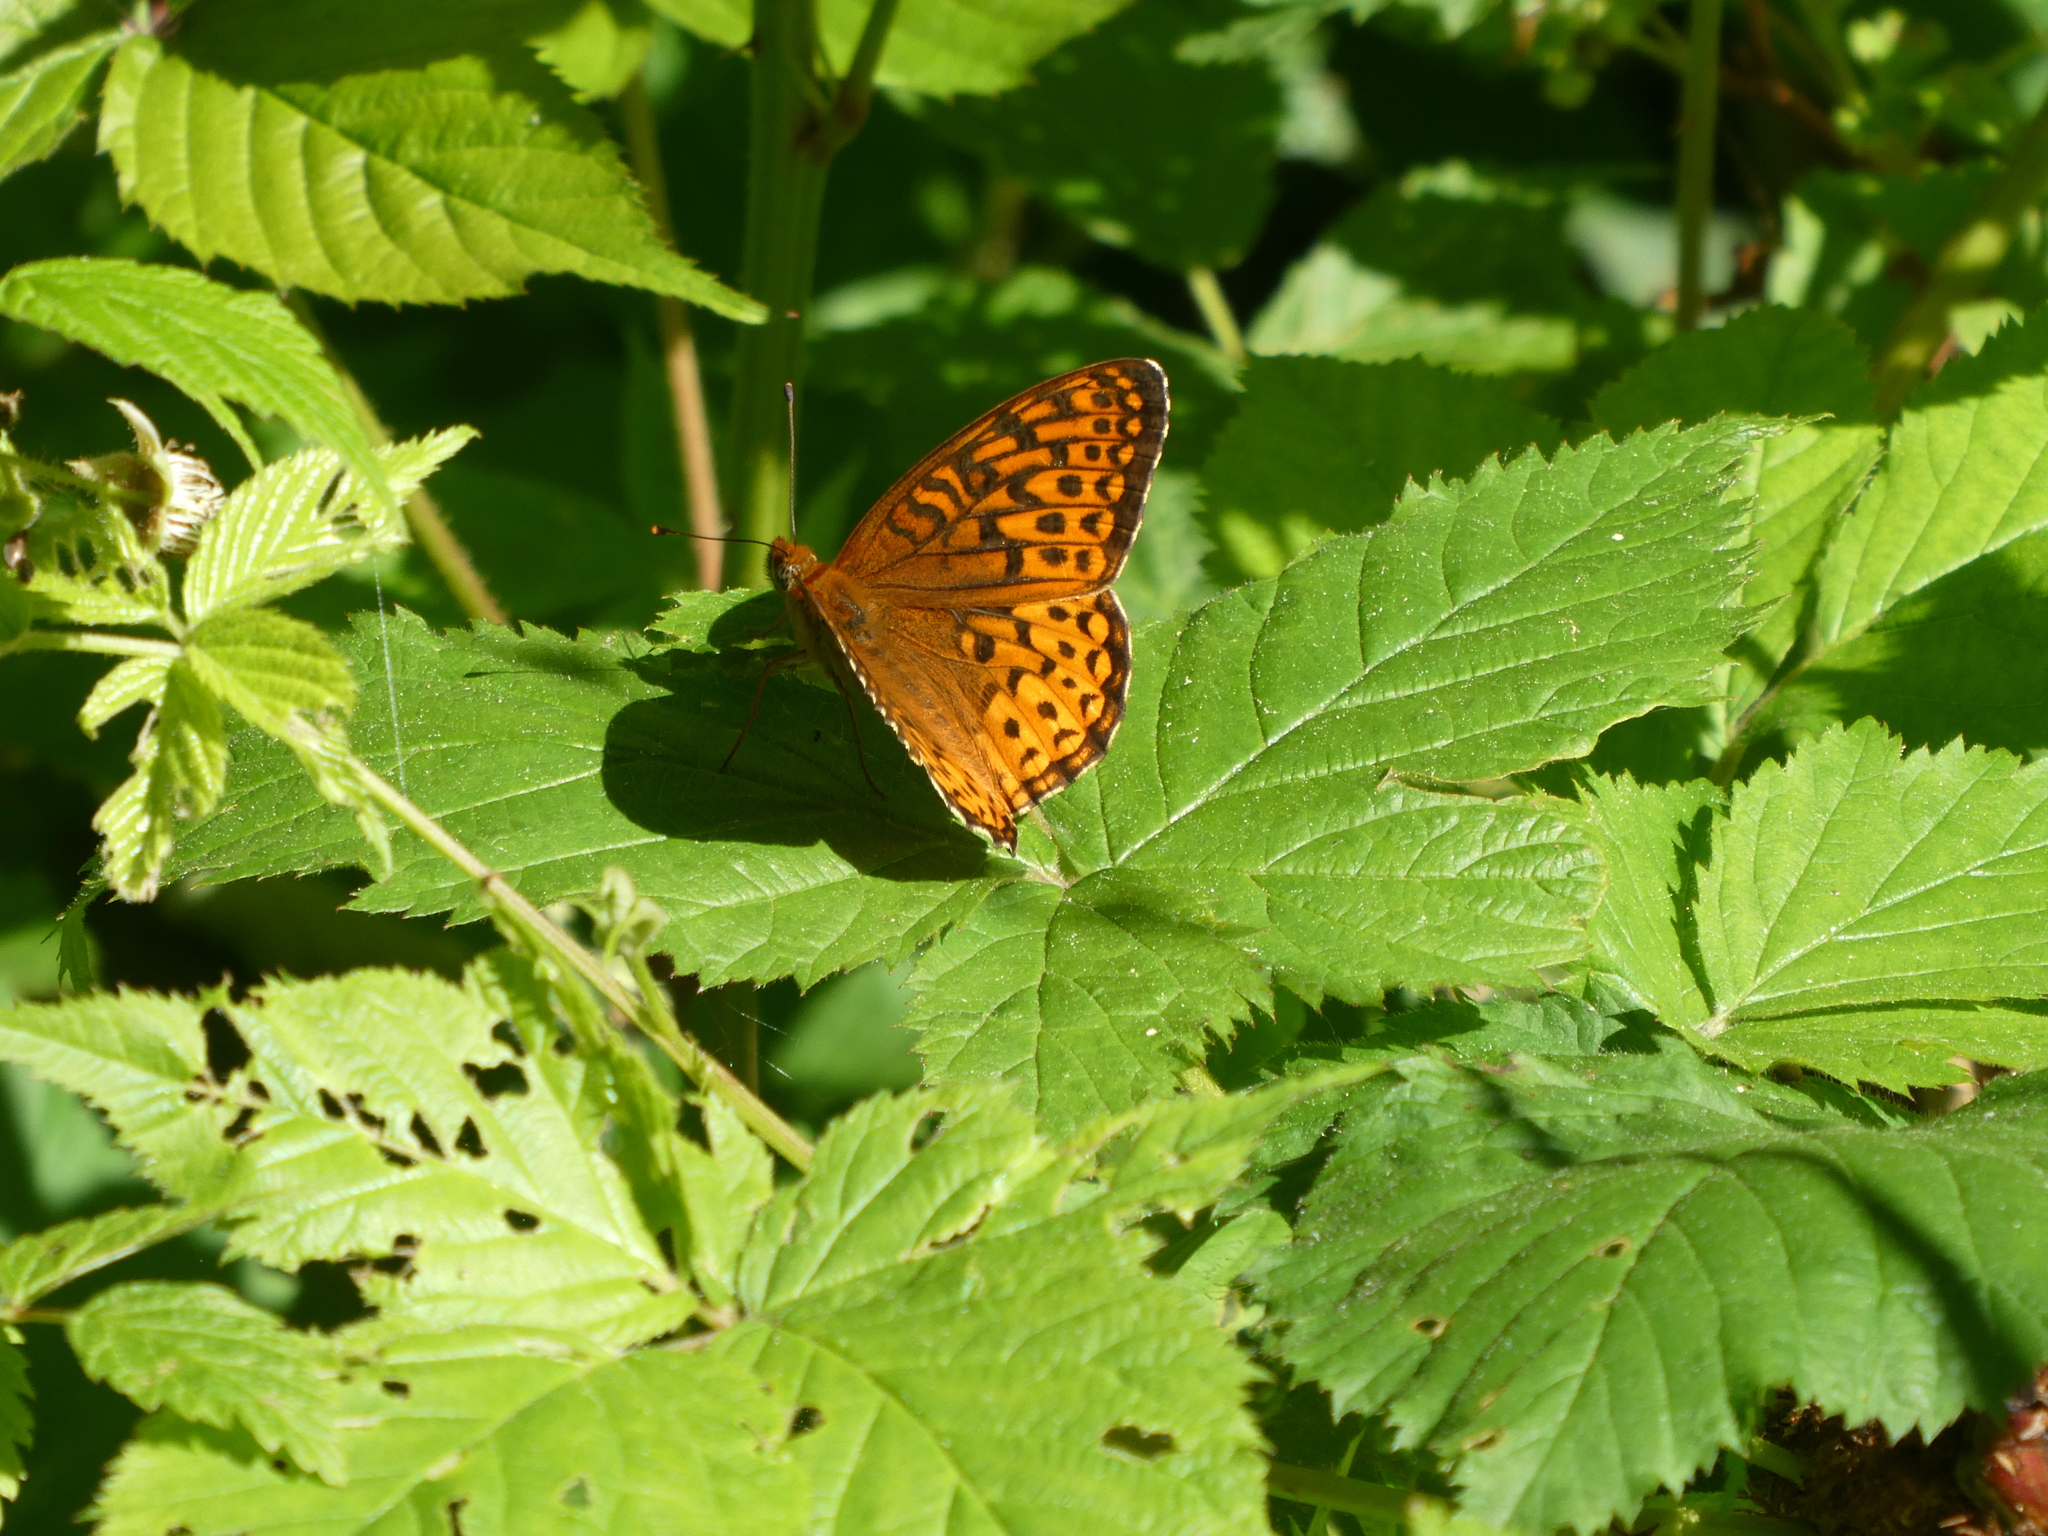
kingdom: Animalia
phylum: Arthropoda
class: Insecta
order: Lepidoptera
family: Nymphalidae
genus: Speyeria
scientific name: Speyeria atlantis
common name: Atlantis fritillary
